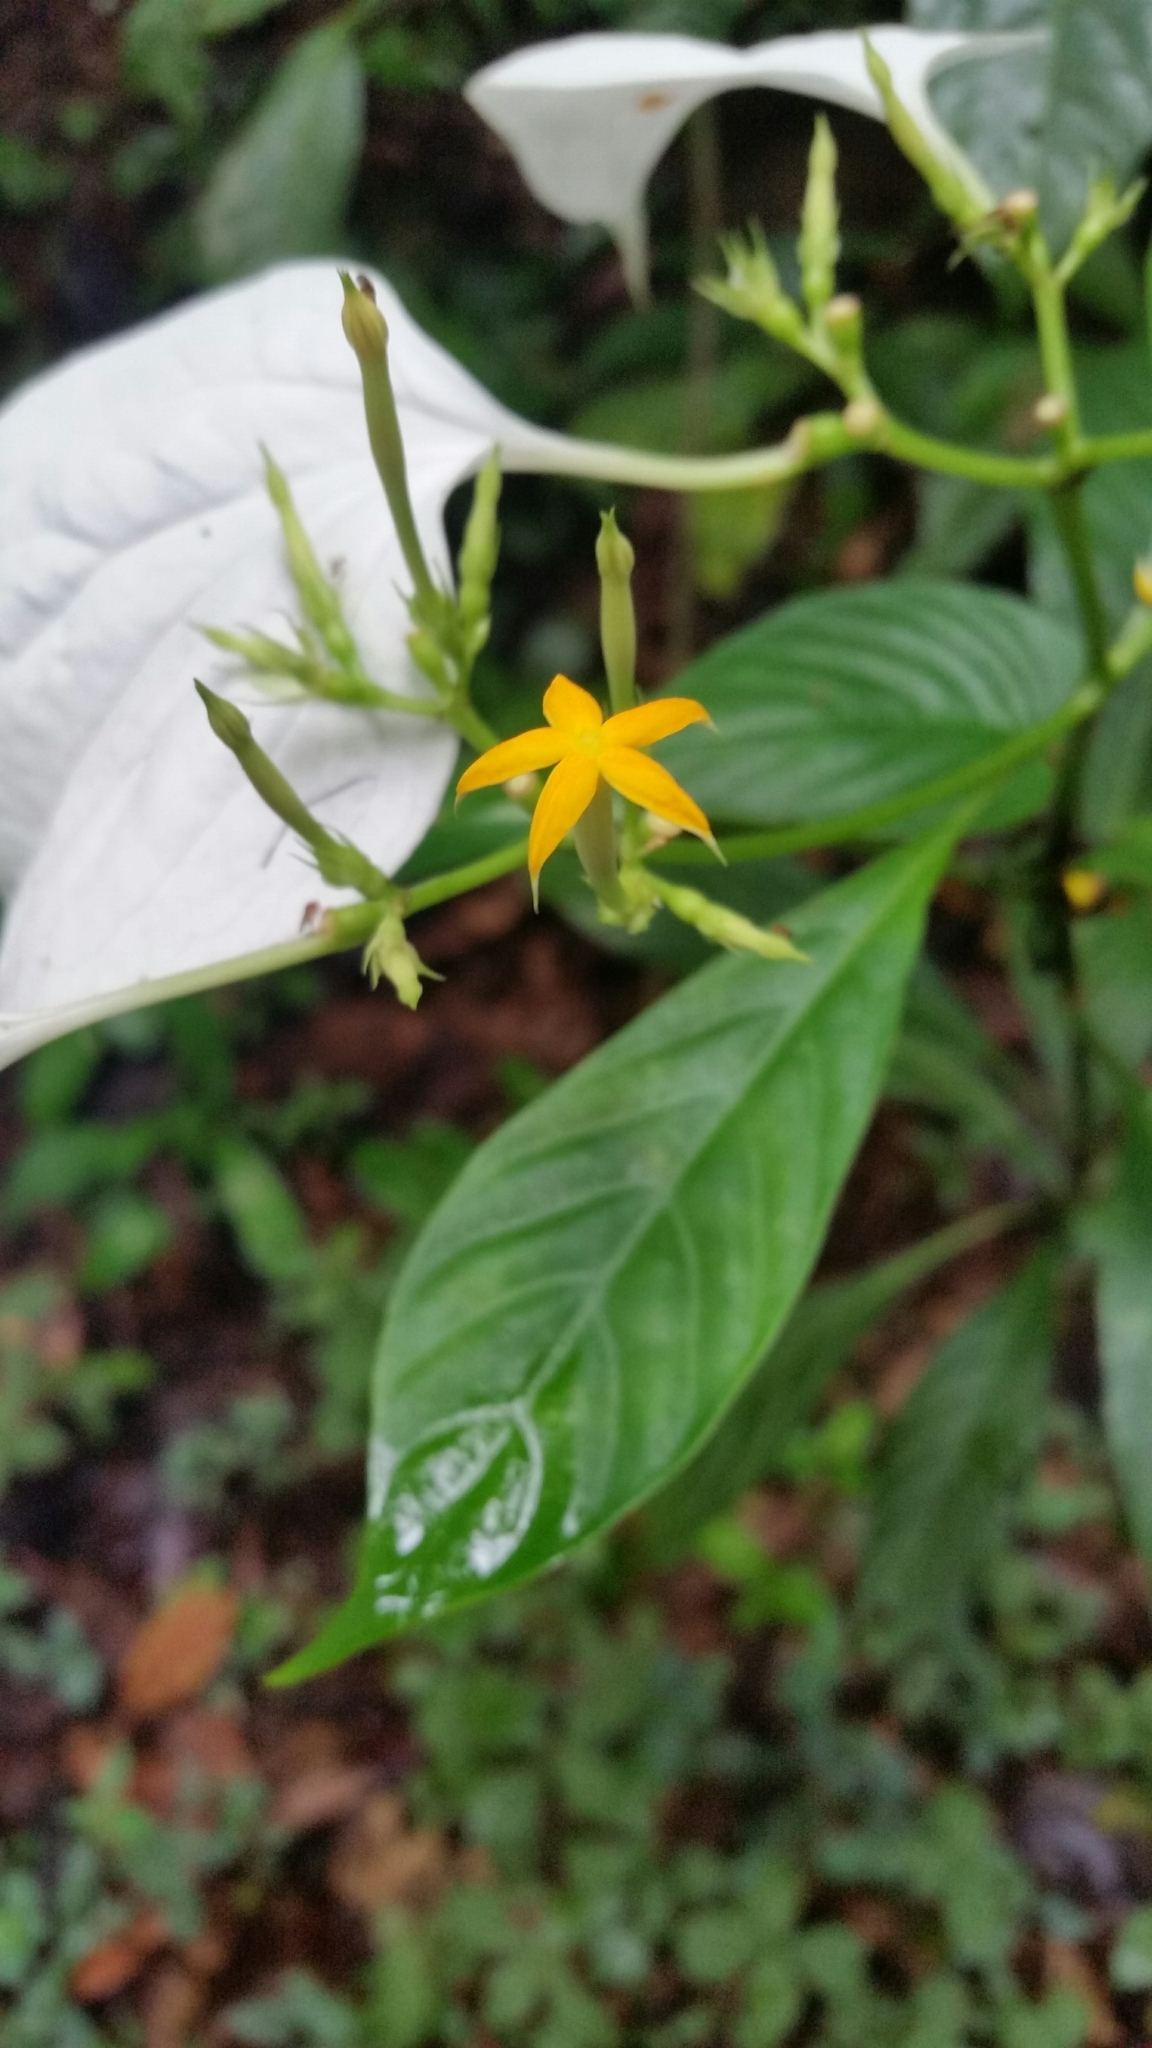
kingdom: Plantae
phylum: Tracheophyta
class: Magnoliopsida
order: Gentianales
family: Rubiaceae
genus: Mussaenda
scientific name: Mussaenda pubescens
